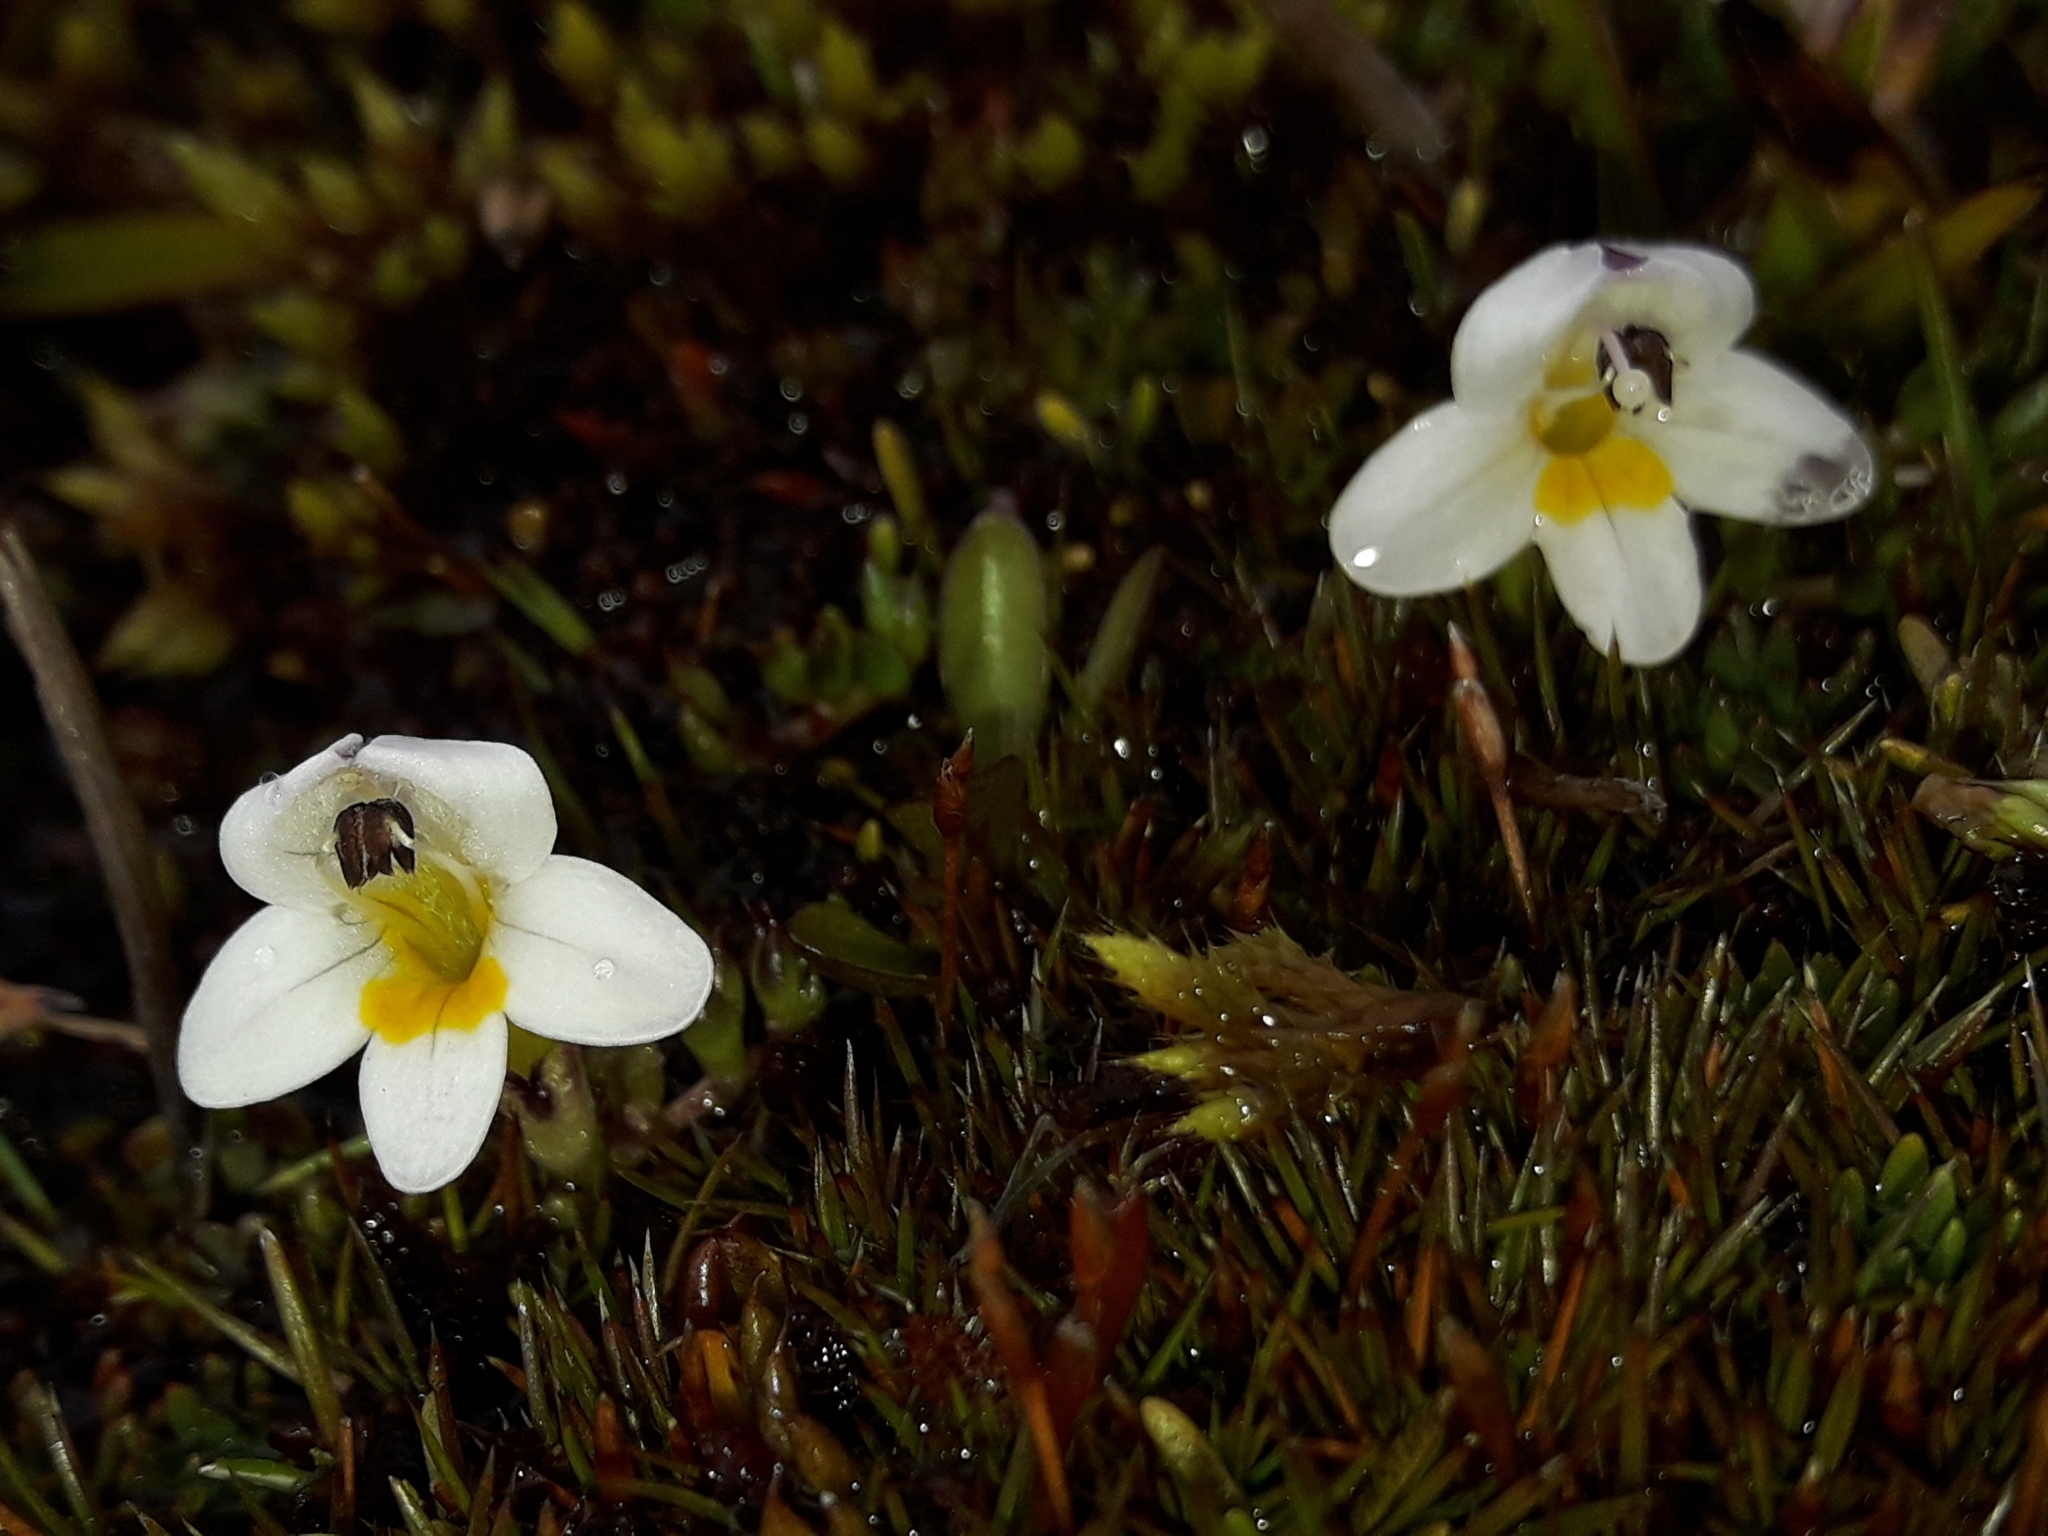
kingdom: Plantae
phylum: Tracheophyta
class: Magnoliopsida
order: Lamiales
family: Orobanchaceae
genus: Euphrasia
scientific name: Euphrasia integrifolia
